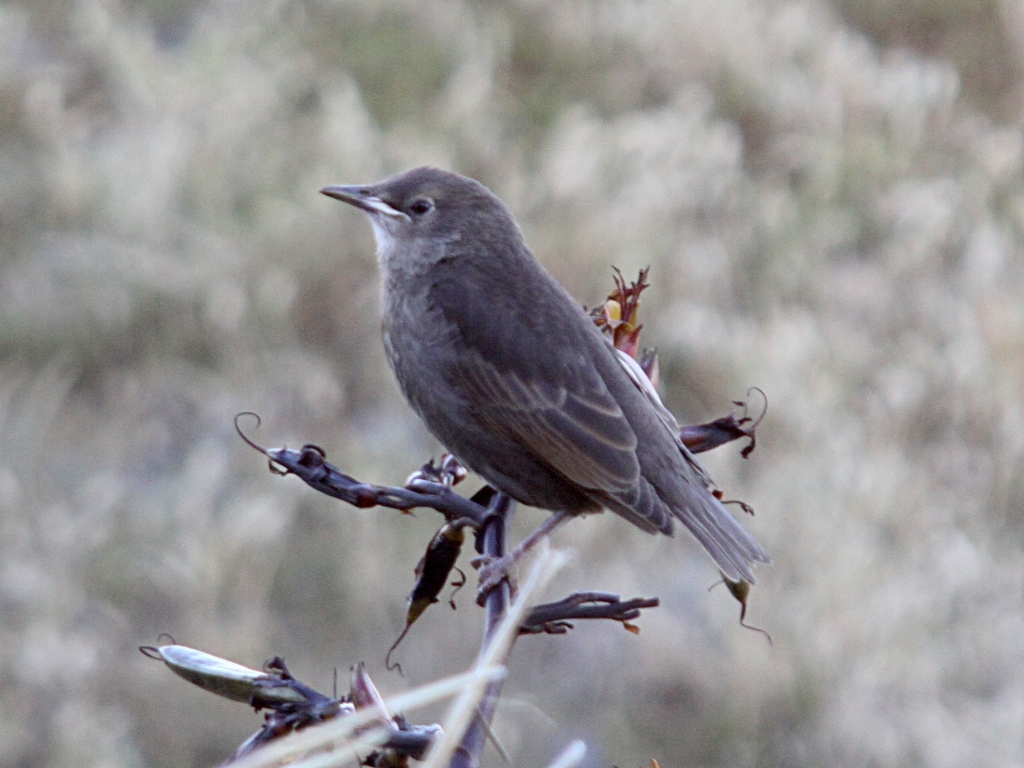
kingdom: Animalia
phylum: Chordata
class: Aves
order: Passeriformes
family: Sturnidae
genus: Sturnus
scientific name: Sturnus vulgaris
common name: Common starling
